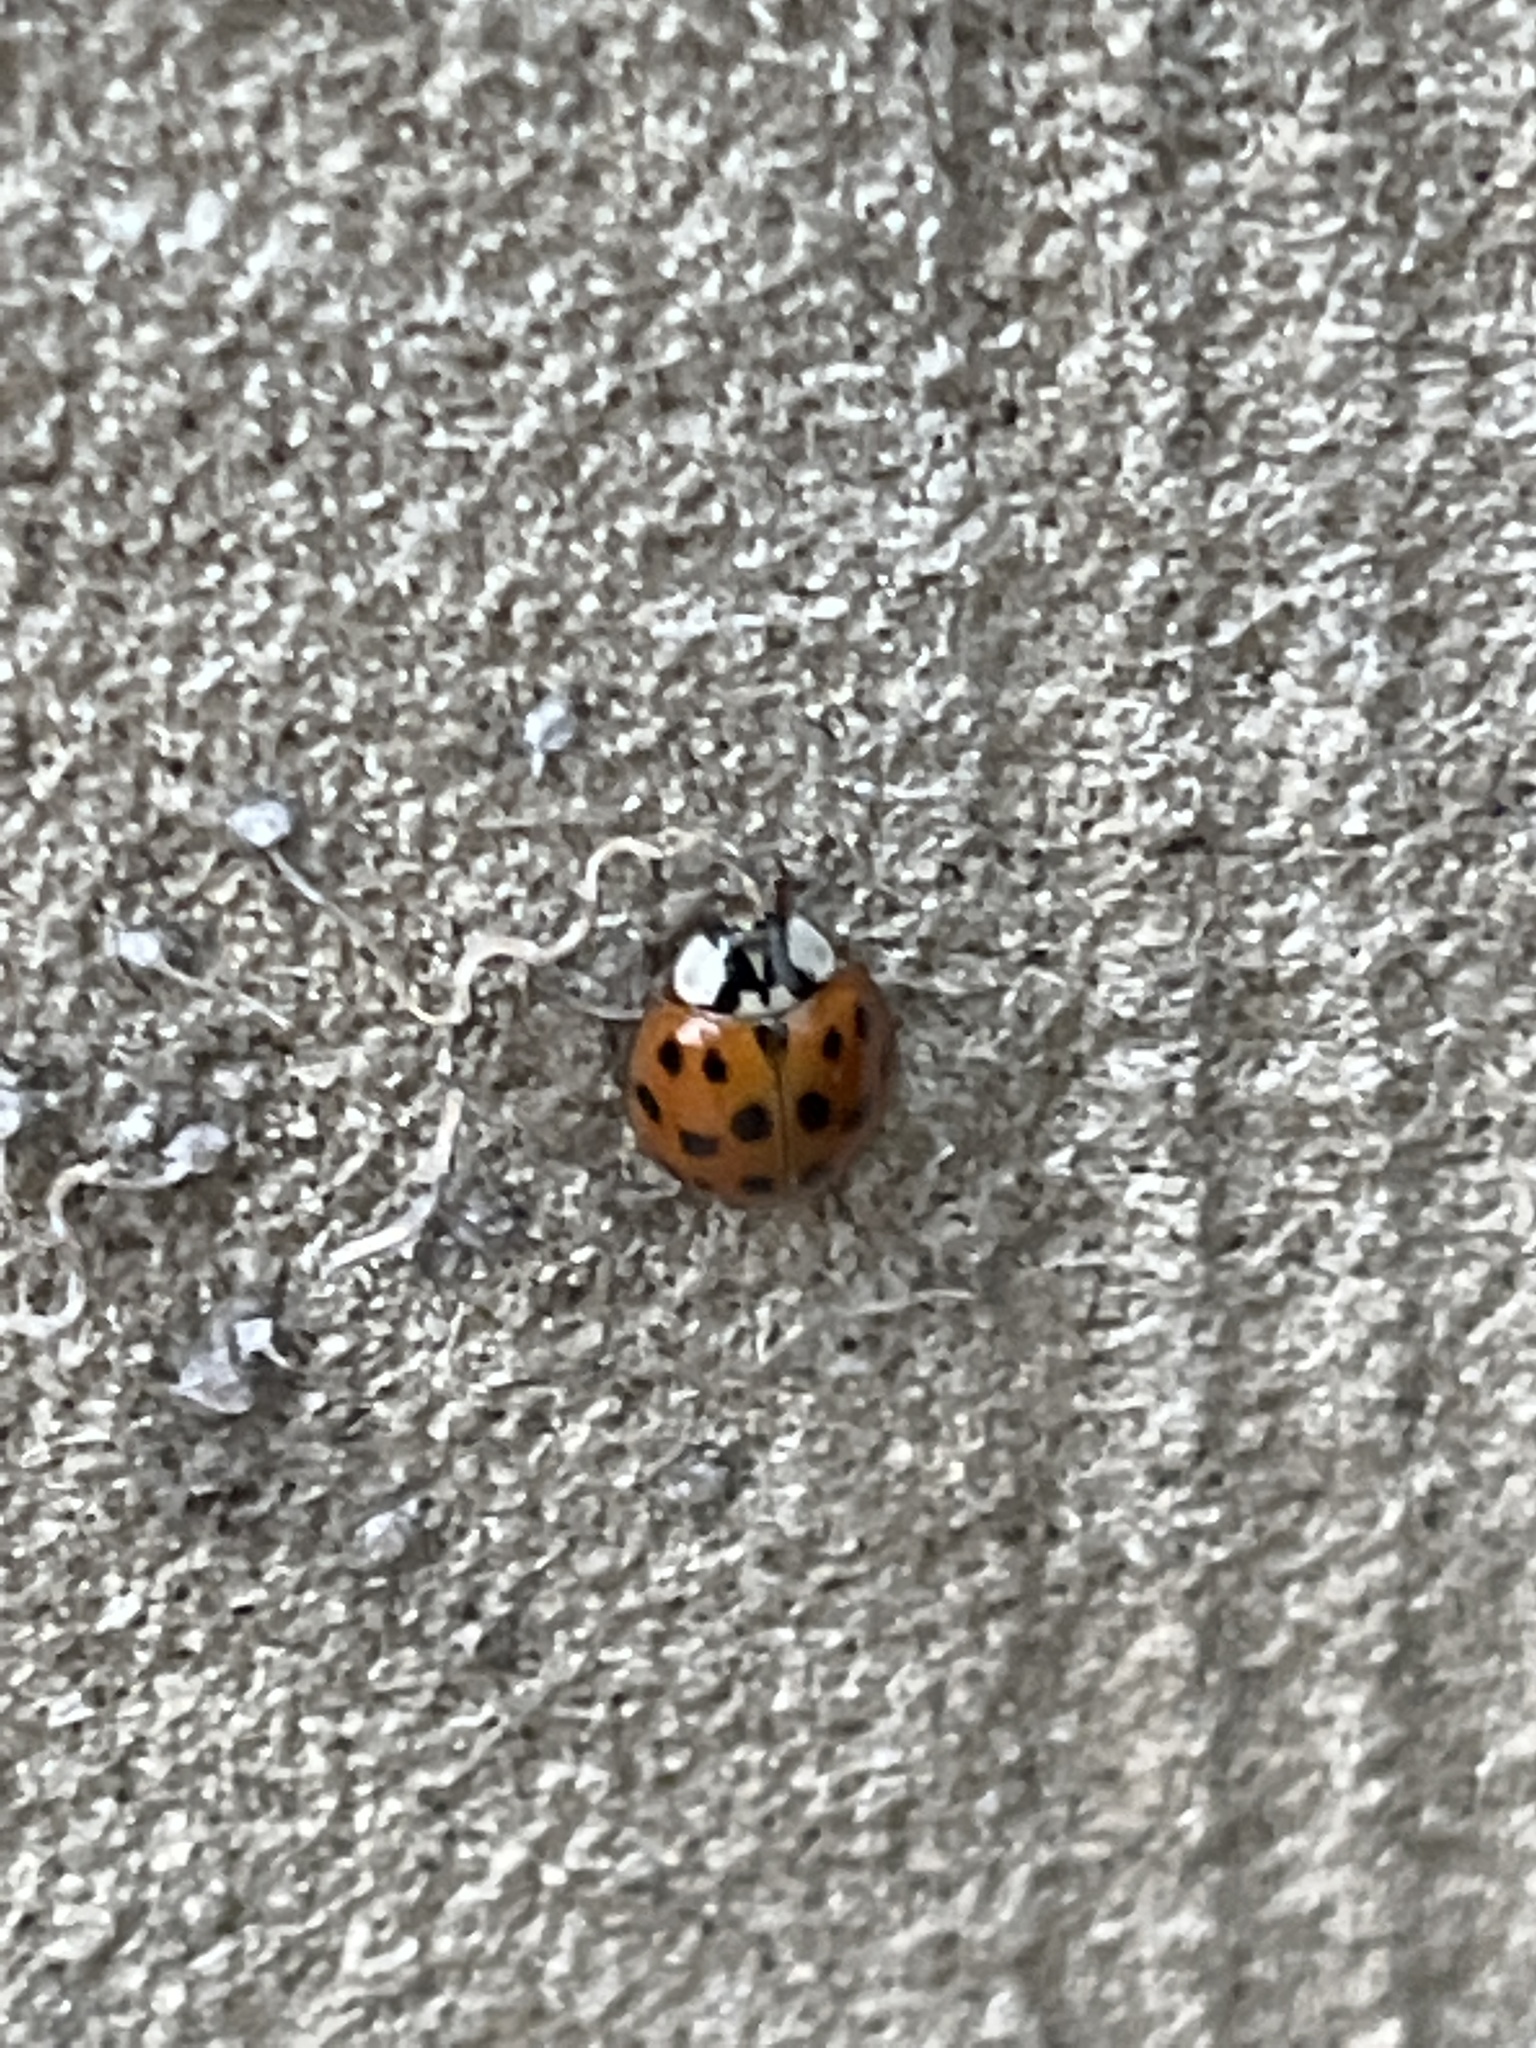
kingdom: Animalia
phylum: Arthropoda
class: Insecta
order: Coleoptera
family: Coccinellidae
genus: Harmonia
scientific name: Harmonia axyridis
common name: Harlequin ladybird
